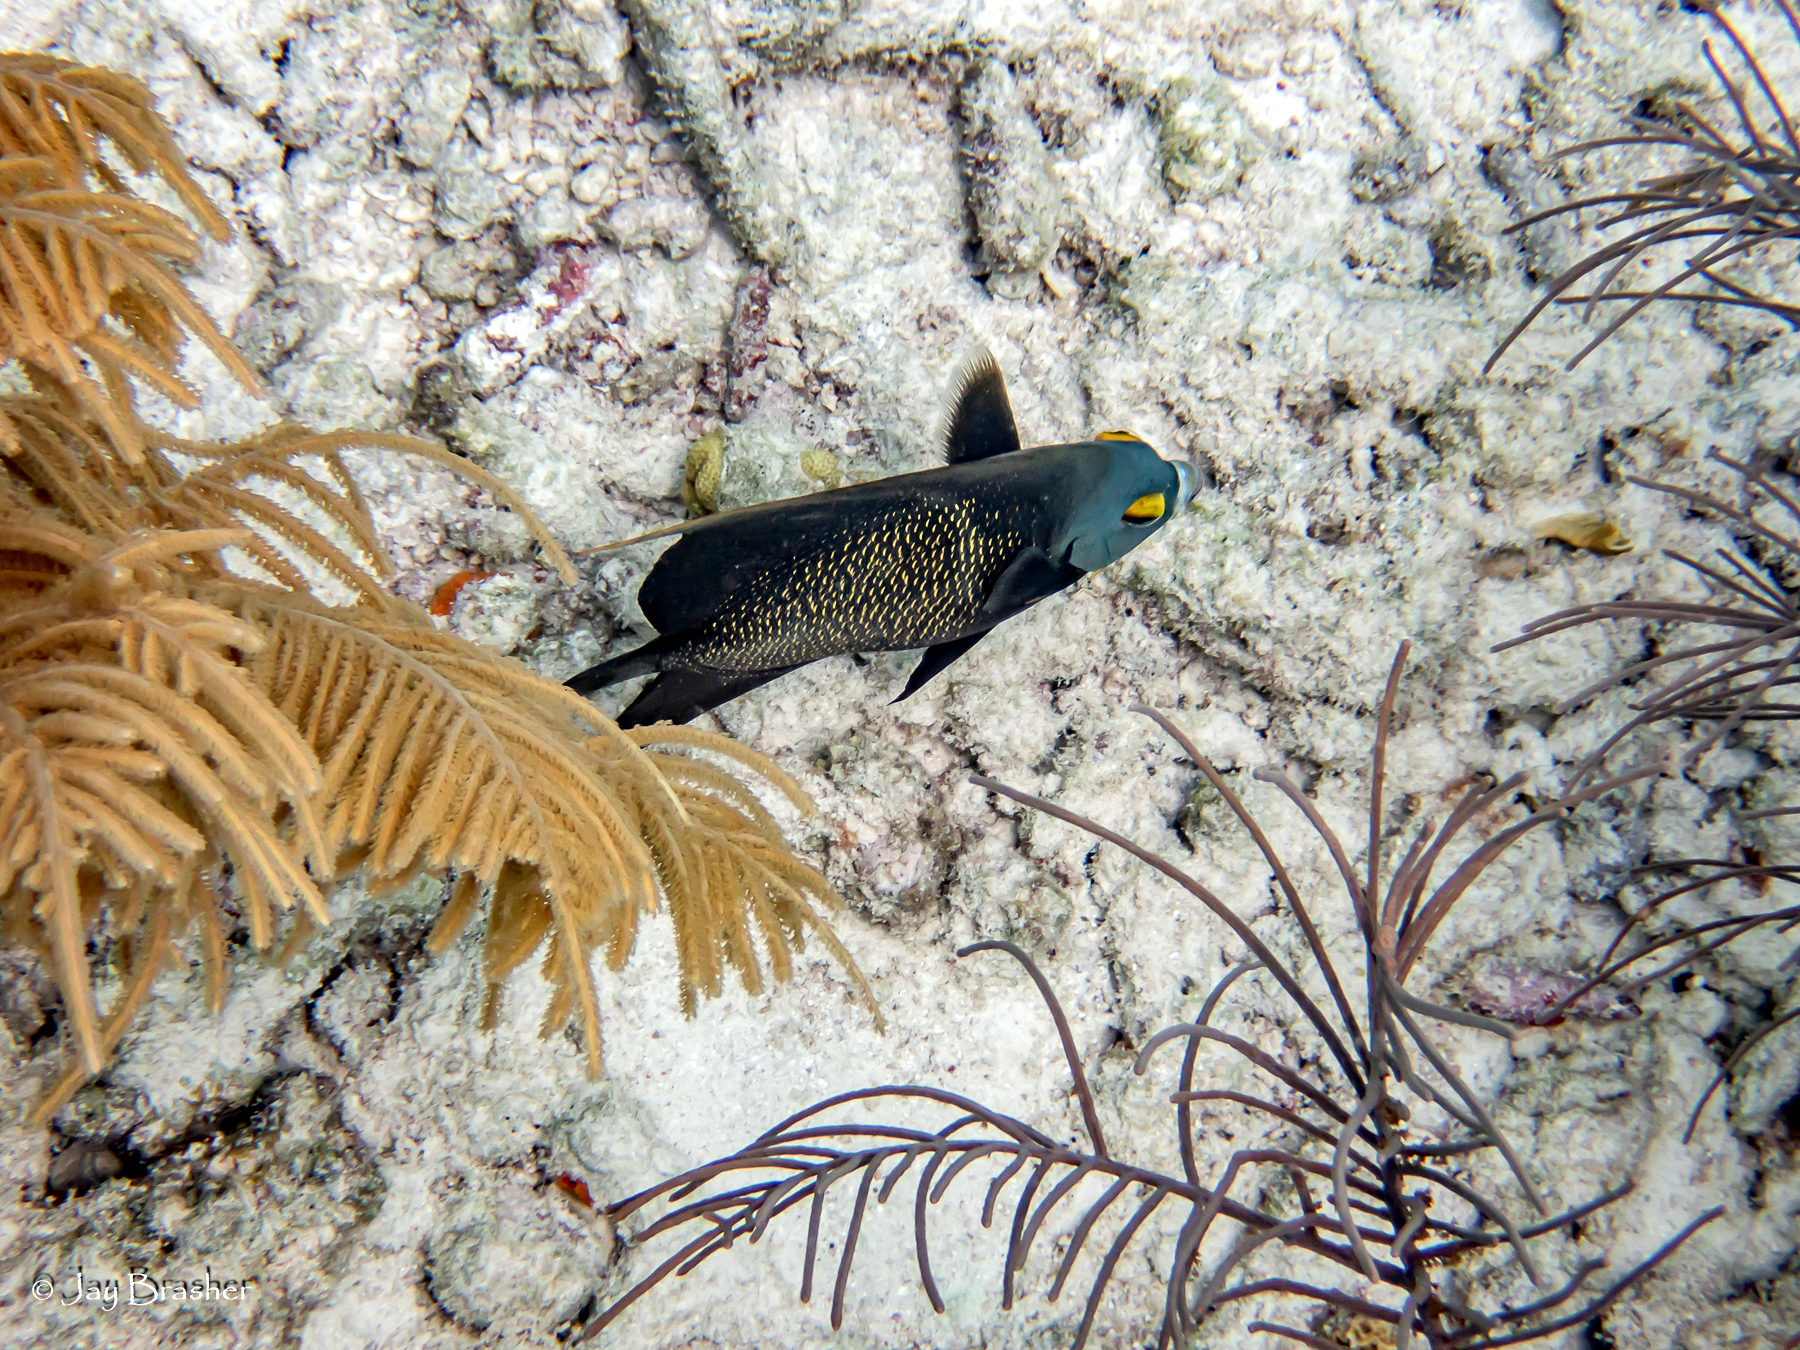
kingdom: Animalia
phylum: Chordata
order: Perciformes
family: Pomacanthidae
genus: Pomacanthus
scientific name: Pomacanthus paru
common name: French angelfish
